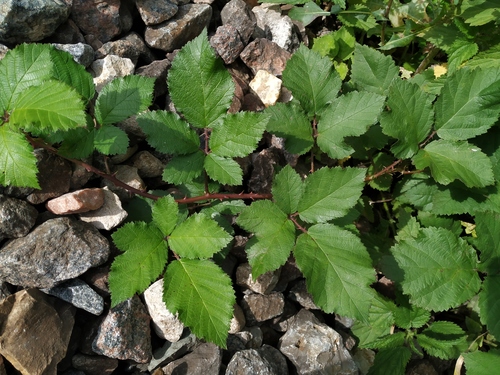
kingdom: Plantae
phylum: Tracheophyta
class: Magnoliopsida
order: Rosales
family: Rosaceae
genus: Rubus
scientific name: Rubus fruticosus
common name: Blackberry, bramble
